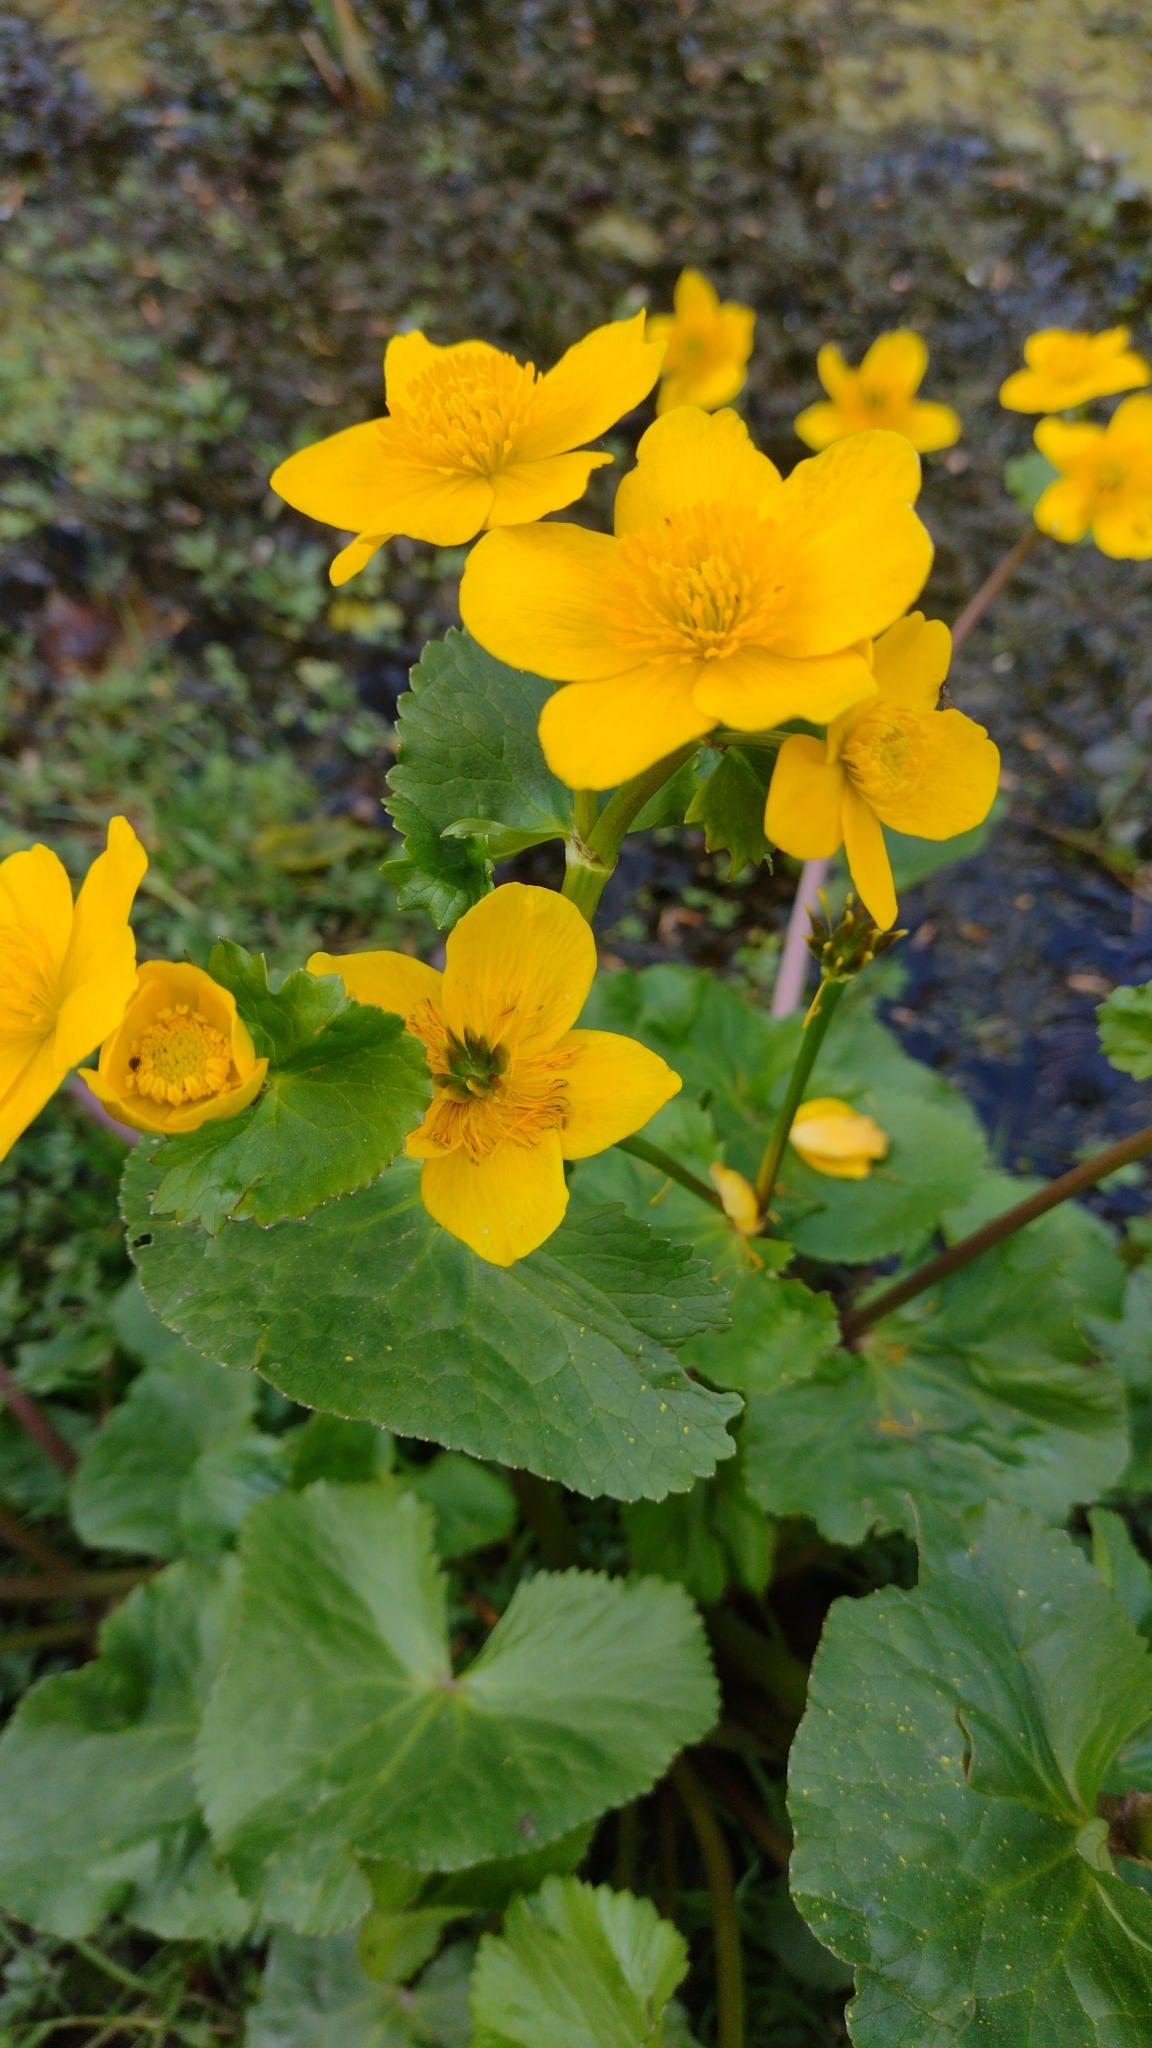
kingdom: Plantae
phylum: Tracheophyta
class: Magnoliopsida
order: Ranunculales
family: Ranunculaceae
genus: Caltha
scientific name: Caltha palustris
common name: Marsh marigold
